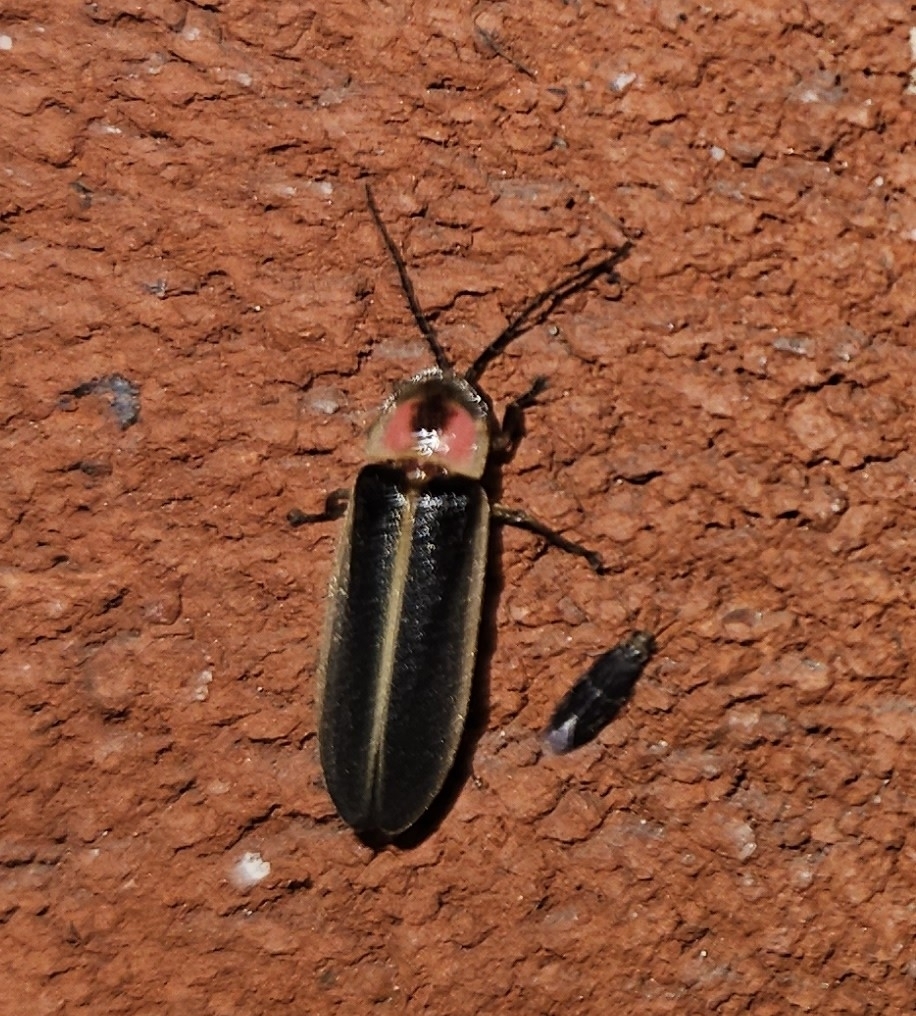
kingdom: Animalia
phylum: Arthropoda
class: Insecta
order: Coleoptera
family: Lampyridae
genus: Photinus
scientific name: Photinus pyralis
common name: Big dipper firefly
